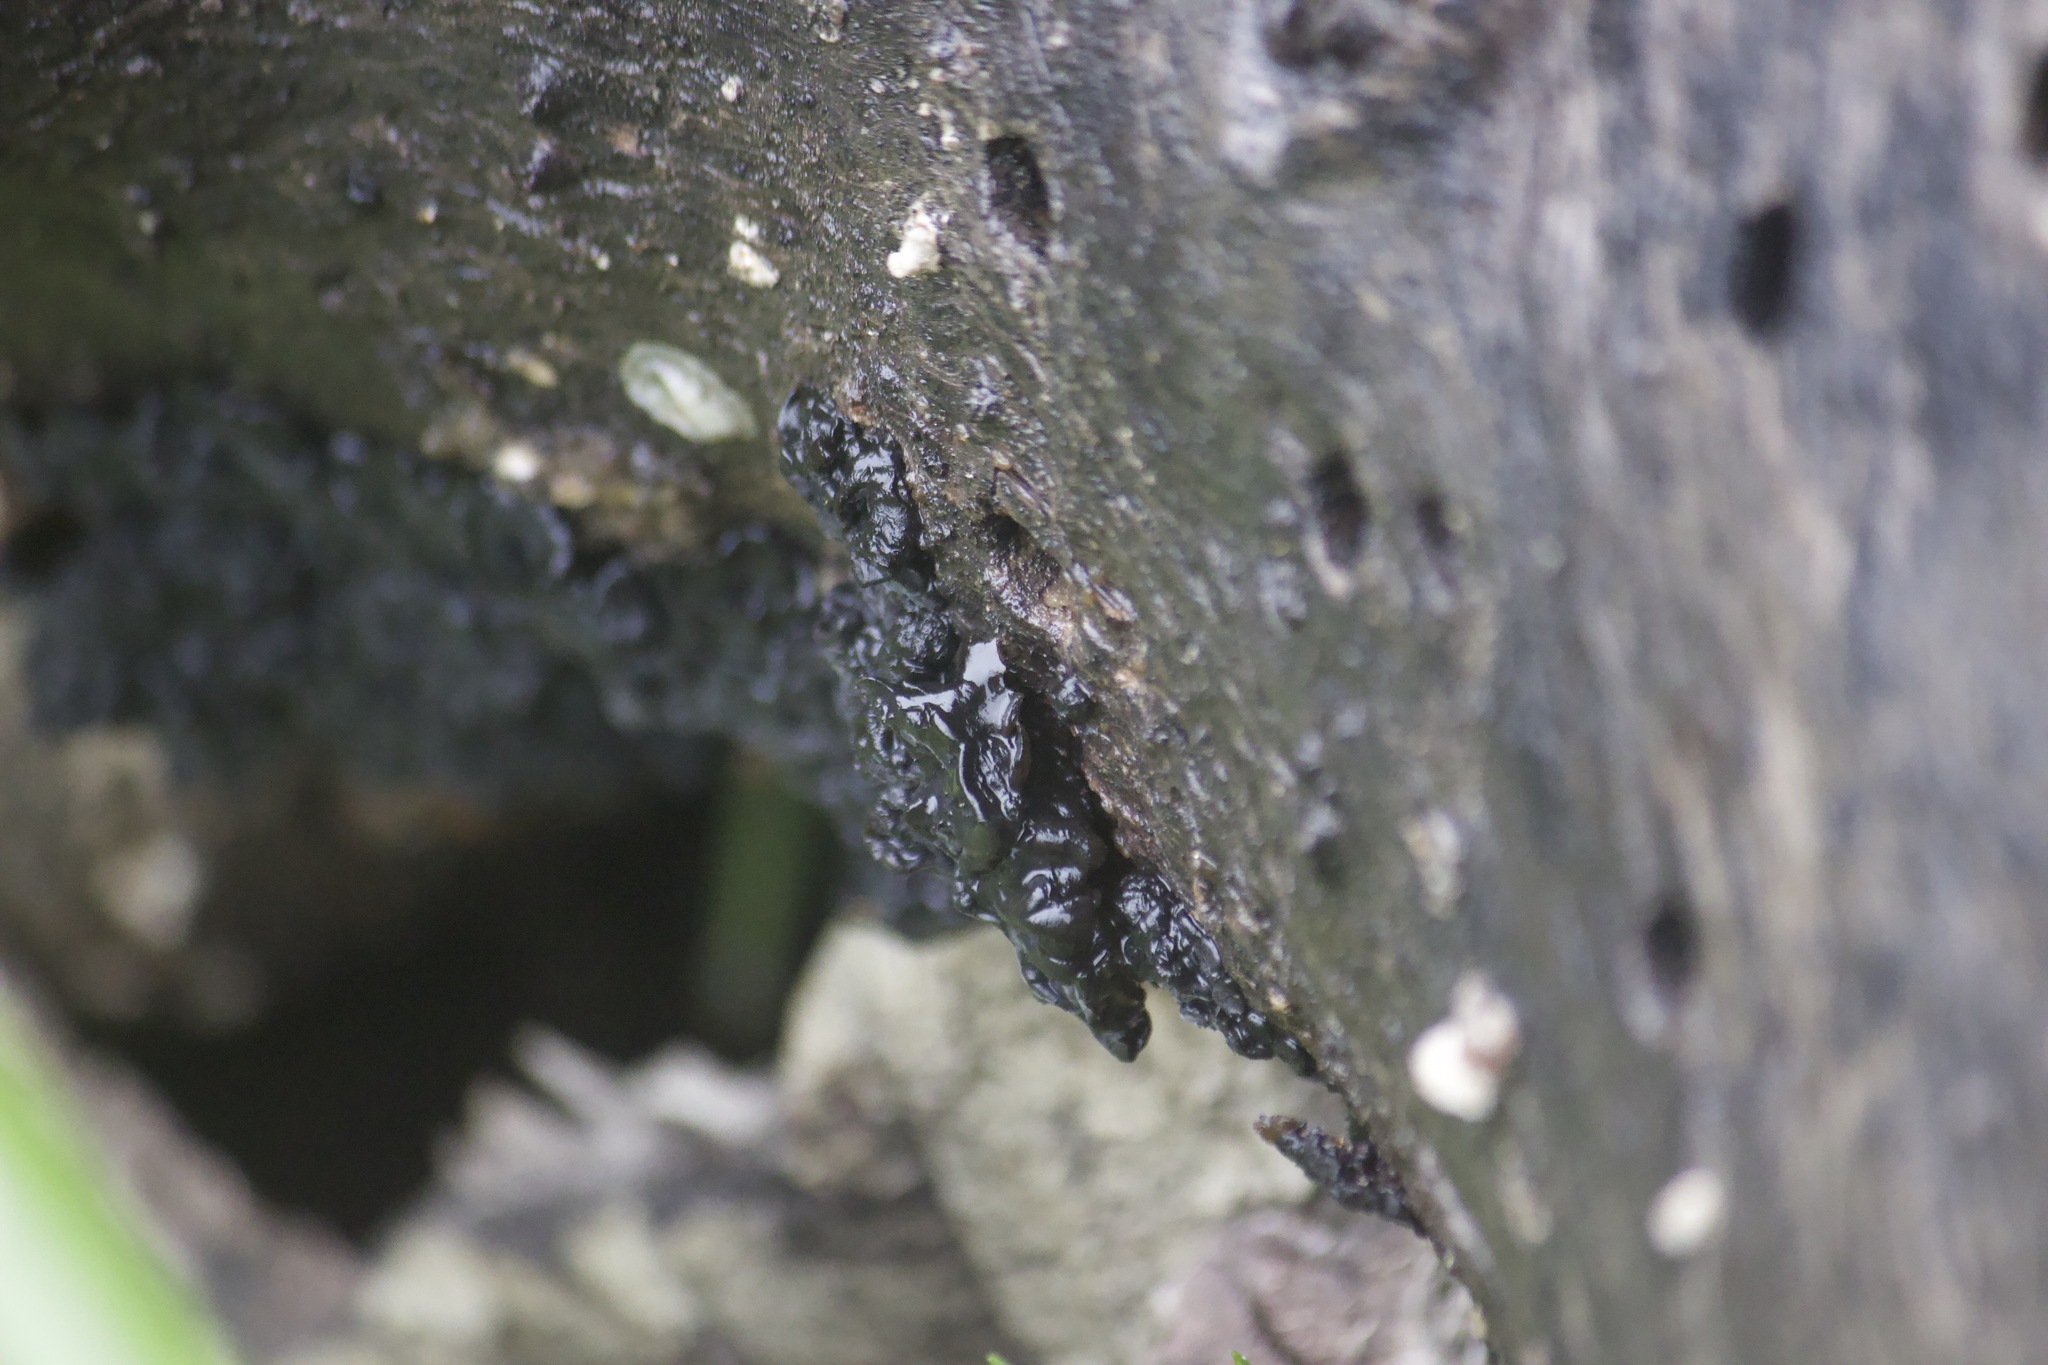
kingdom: Fungi
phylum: Basidiomycota
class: Agaricomycetes
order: Auriculariales
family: Auriculariaceae
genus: Exidia
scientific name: Exidia glandulosa
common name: Witches' butter
